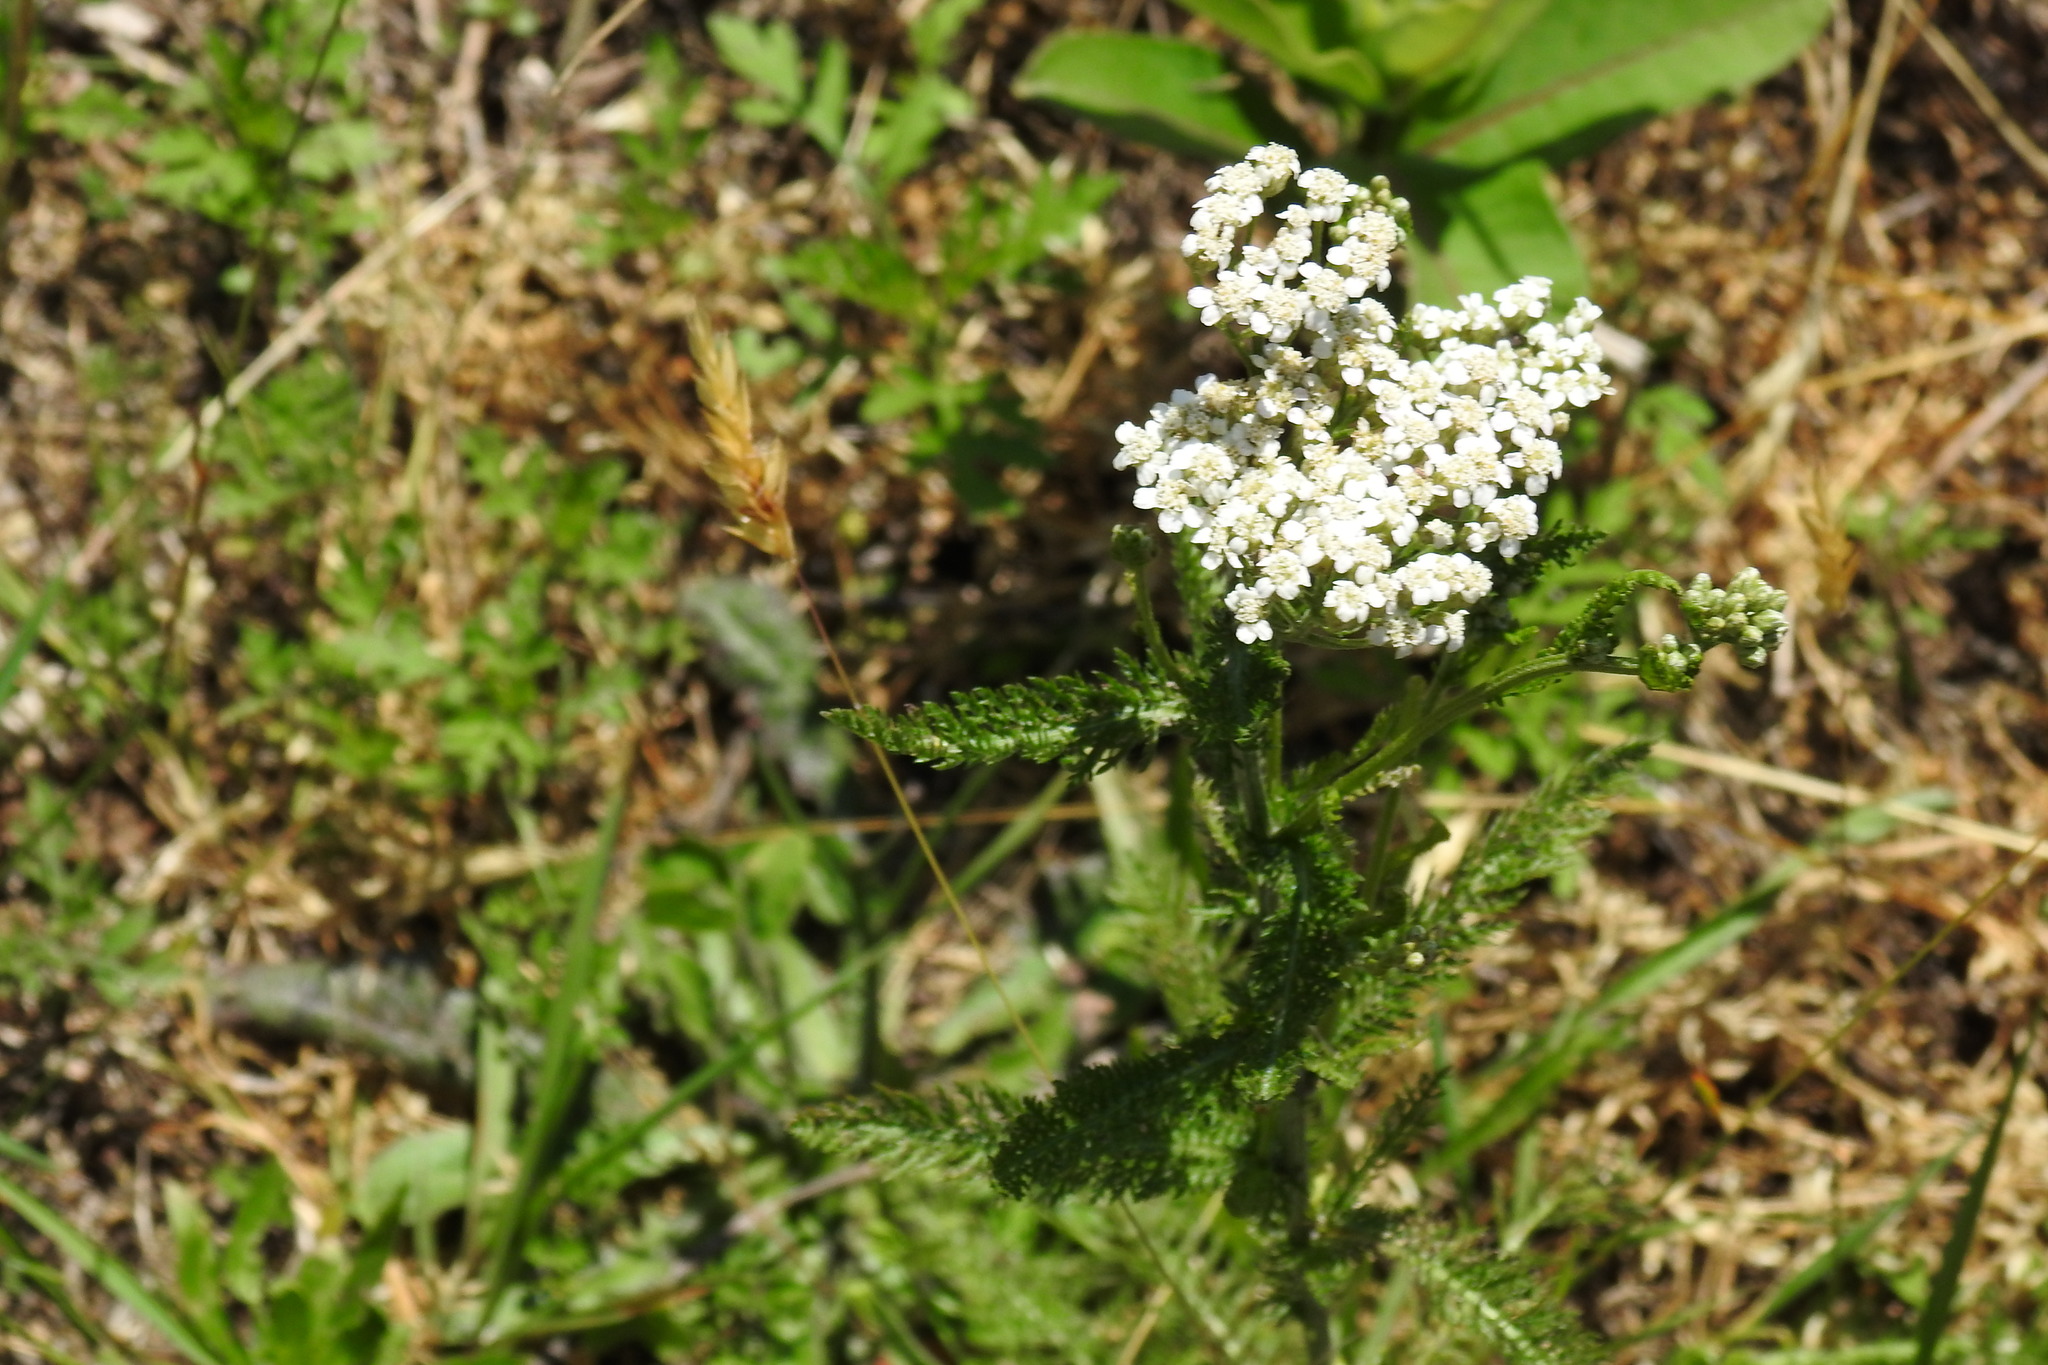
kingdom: Plantae
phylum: Tracheophyta
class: Magnoliopsida
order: Asterales
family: Asteraceae
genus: Achillea
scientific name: Achillea millefolium
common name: Yarrow
